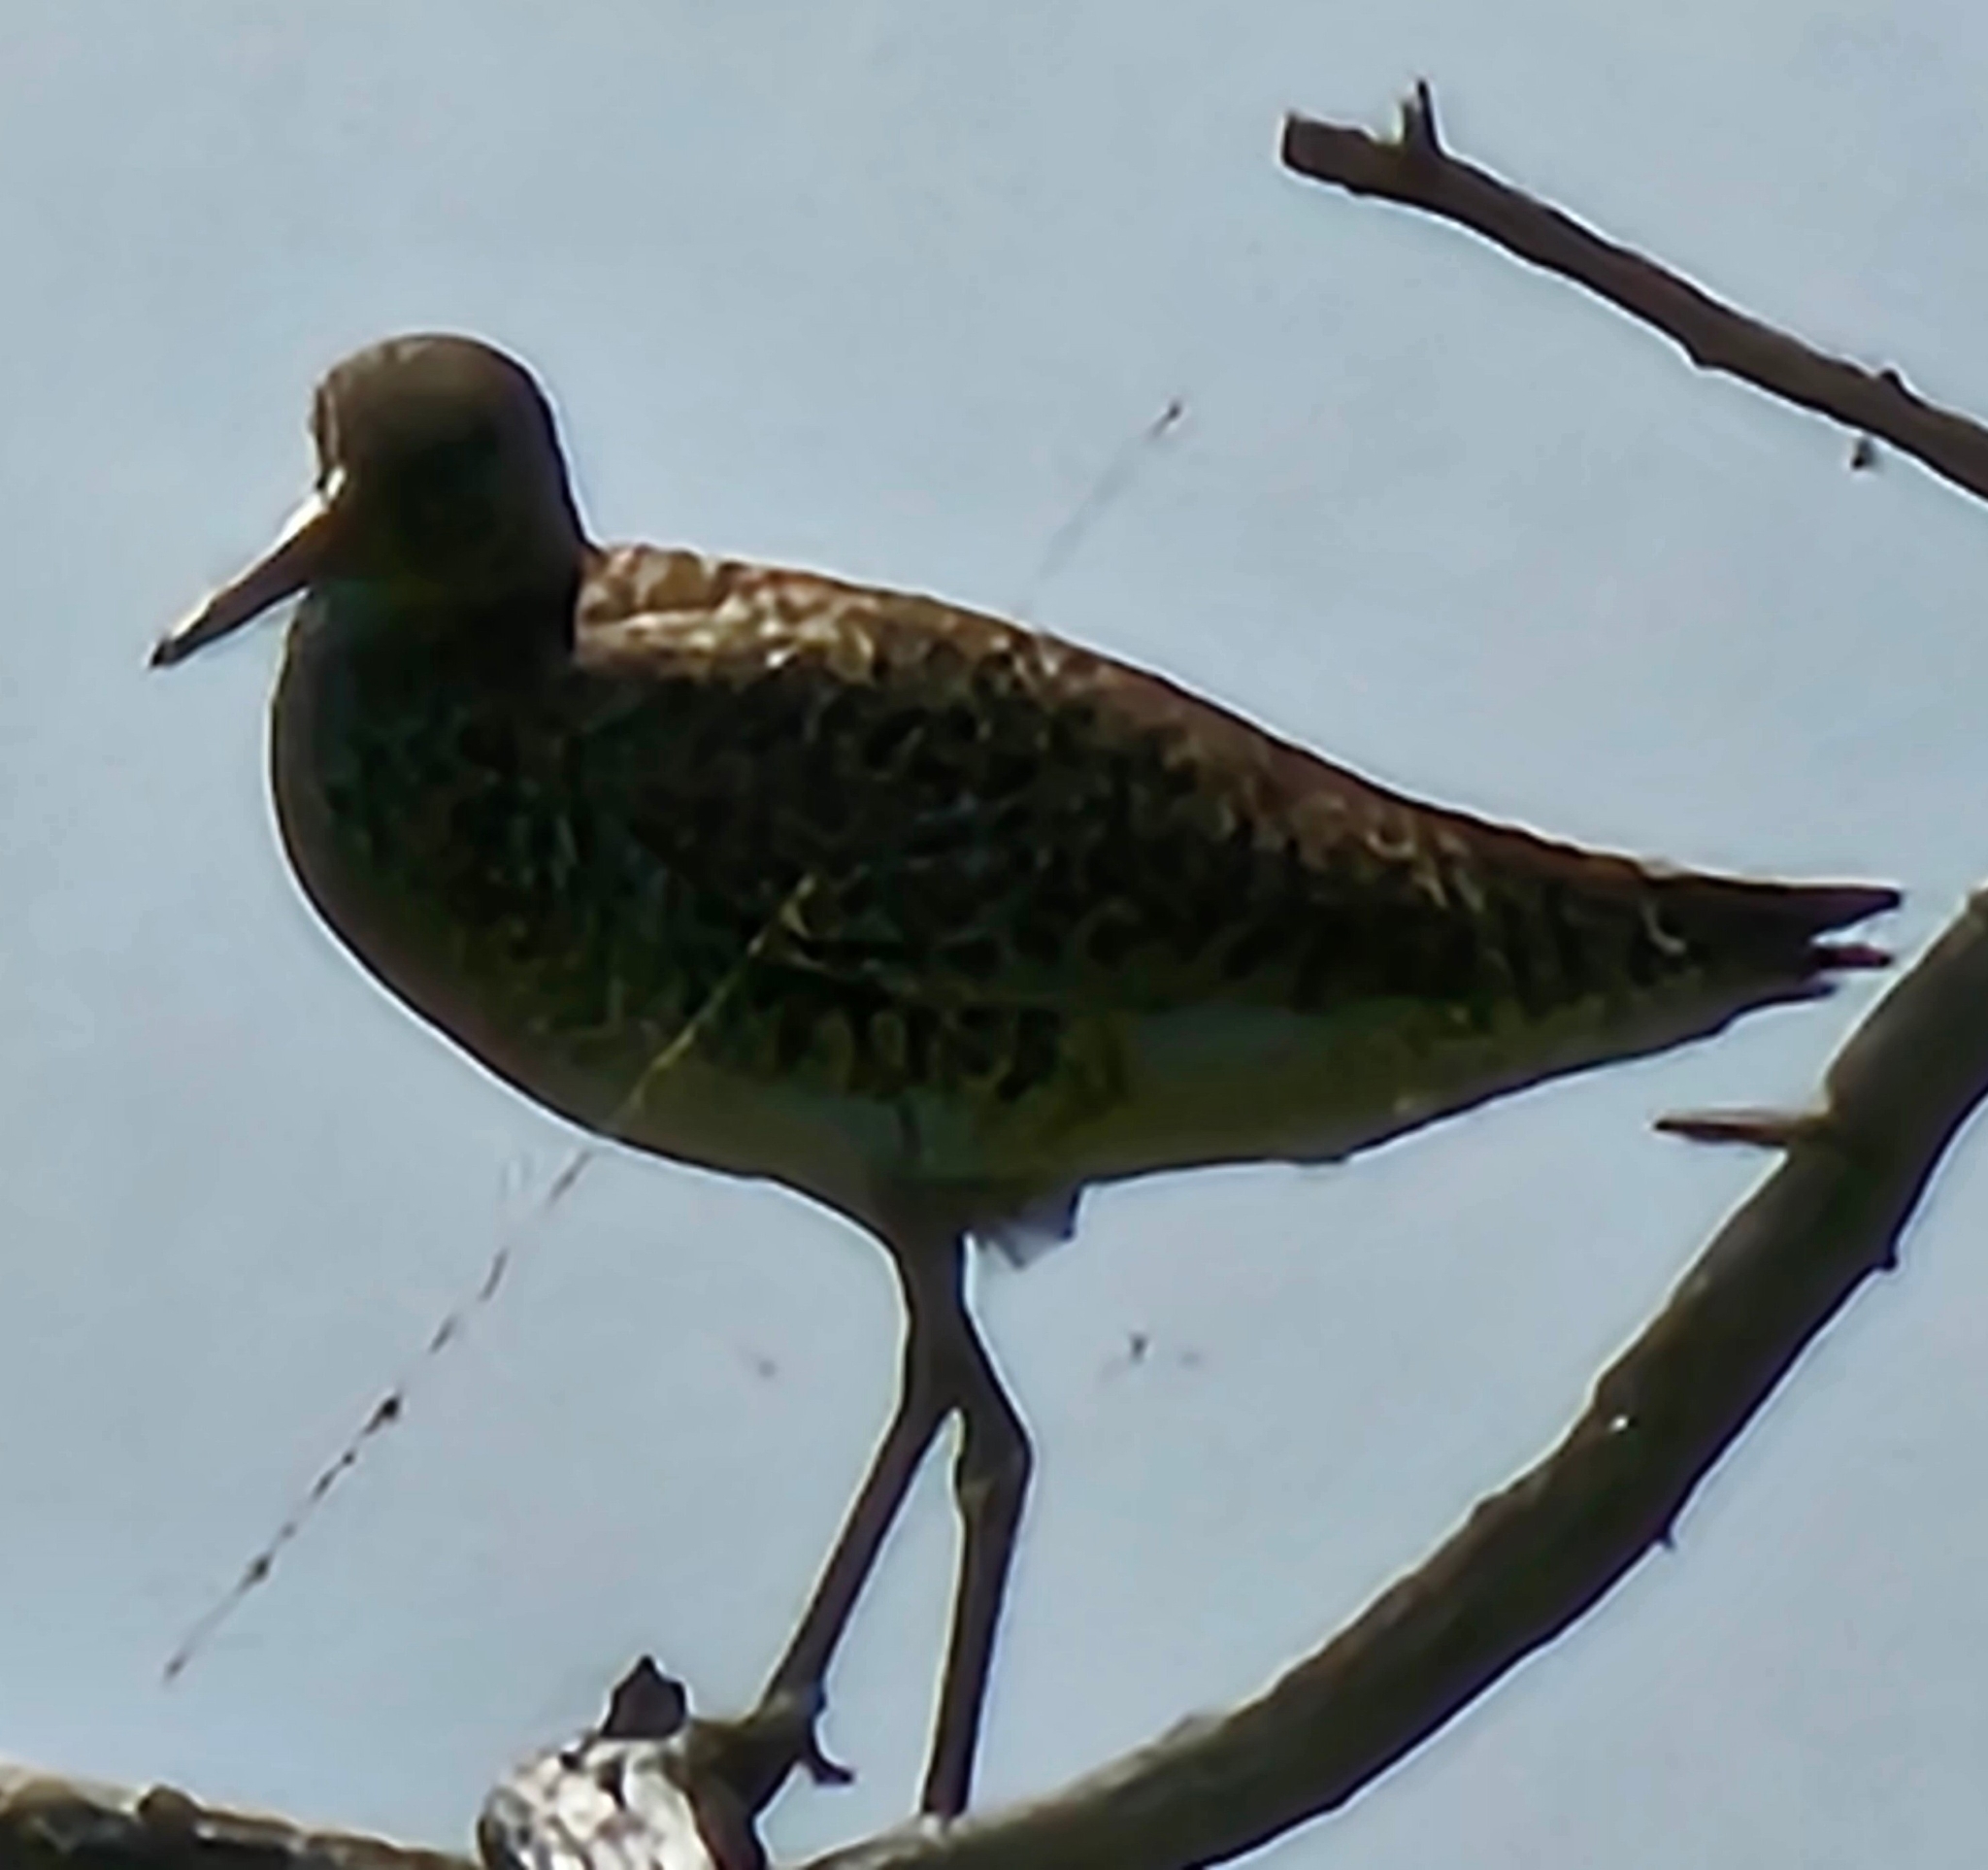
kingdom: Animalia
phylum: Chordata
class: Aves
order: Charadriiformes
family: Scolopacidae
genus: Tringa
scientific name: Tringa semipalmata
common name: Willet
